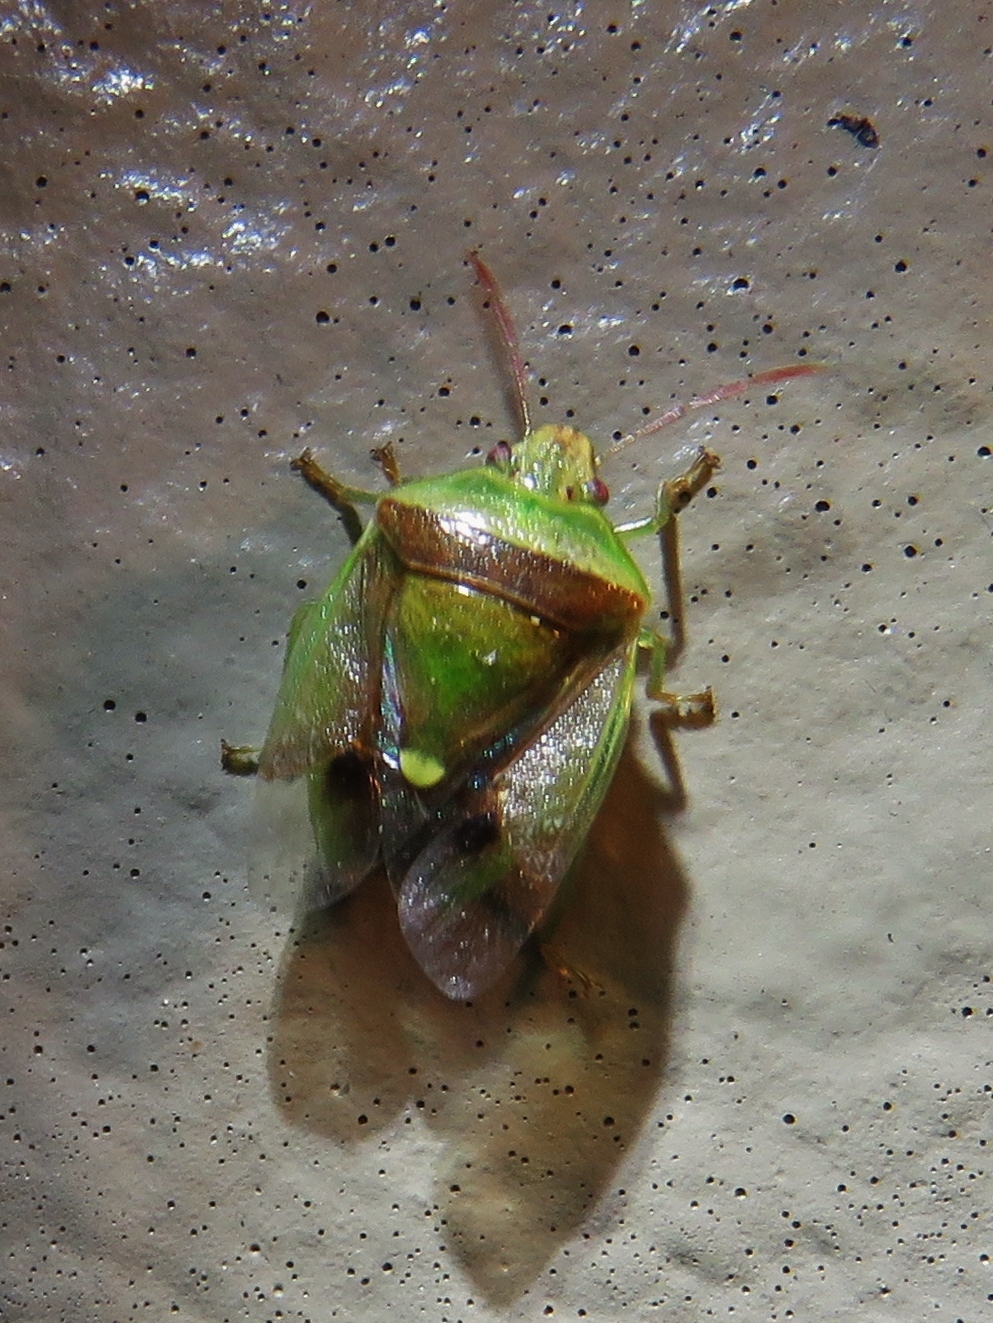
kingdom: Animalia
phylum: Arthropoda
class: Insecta
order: Hemiptera
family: Pentatomidae
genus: Banasa
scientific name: Banasa dimidiata
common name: Green burgundy stink bug
